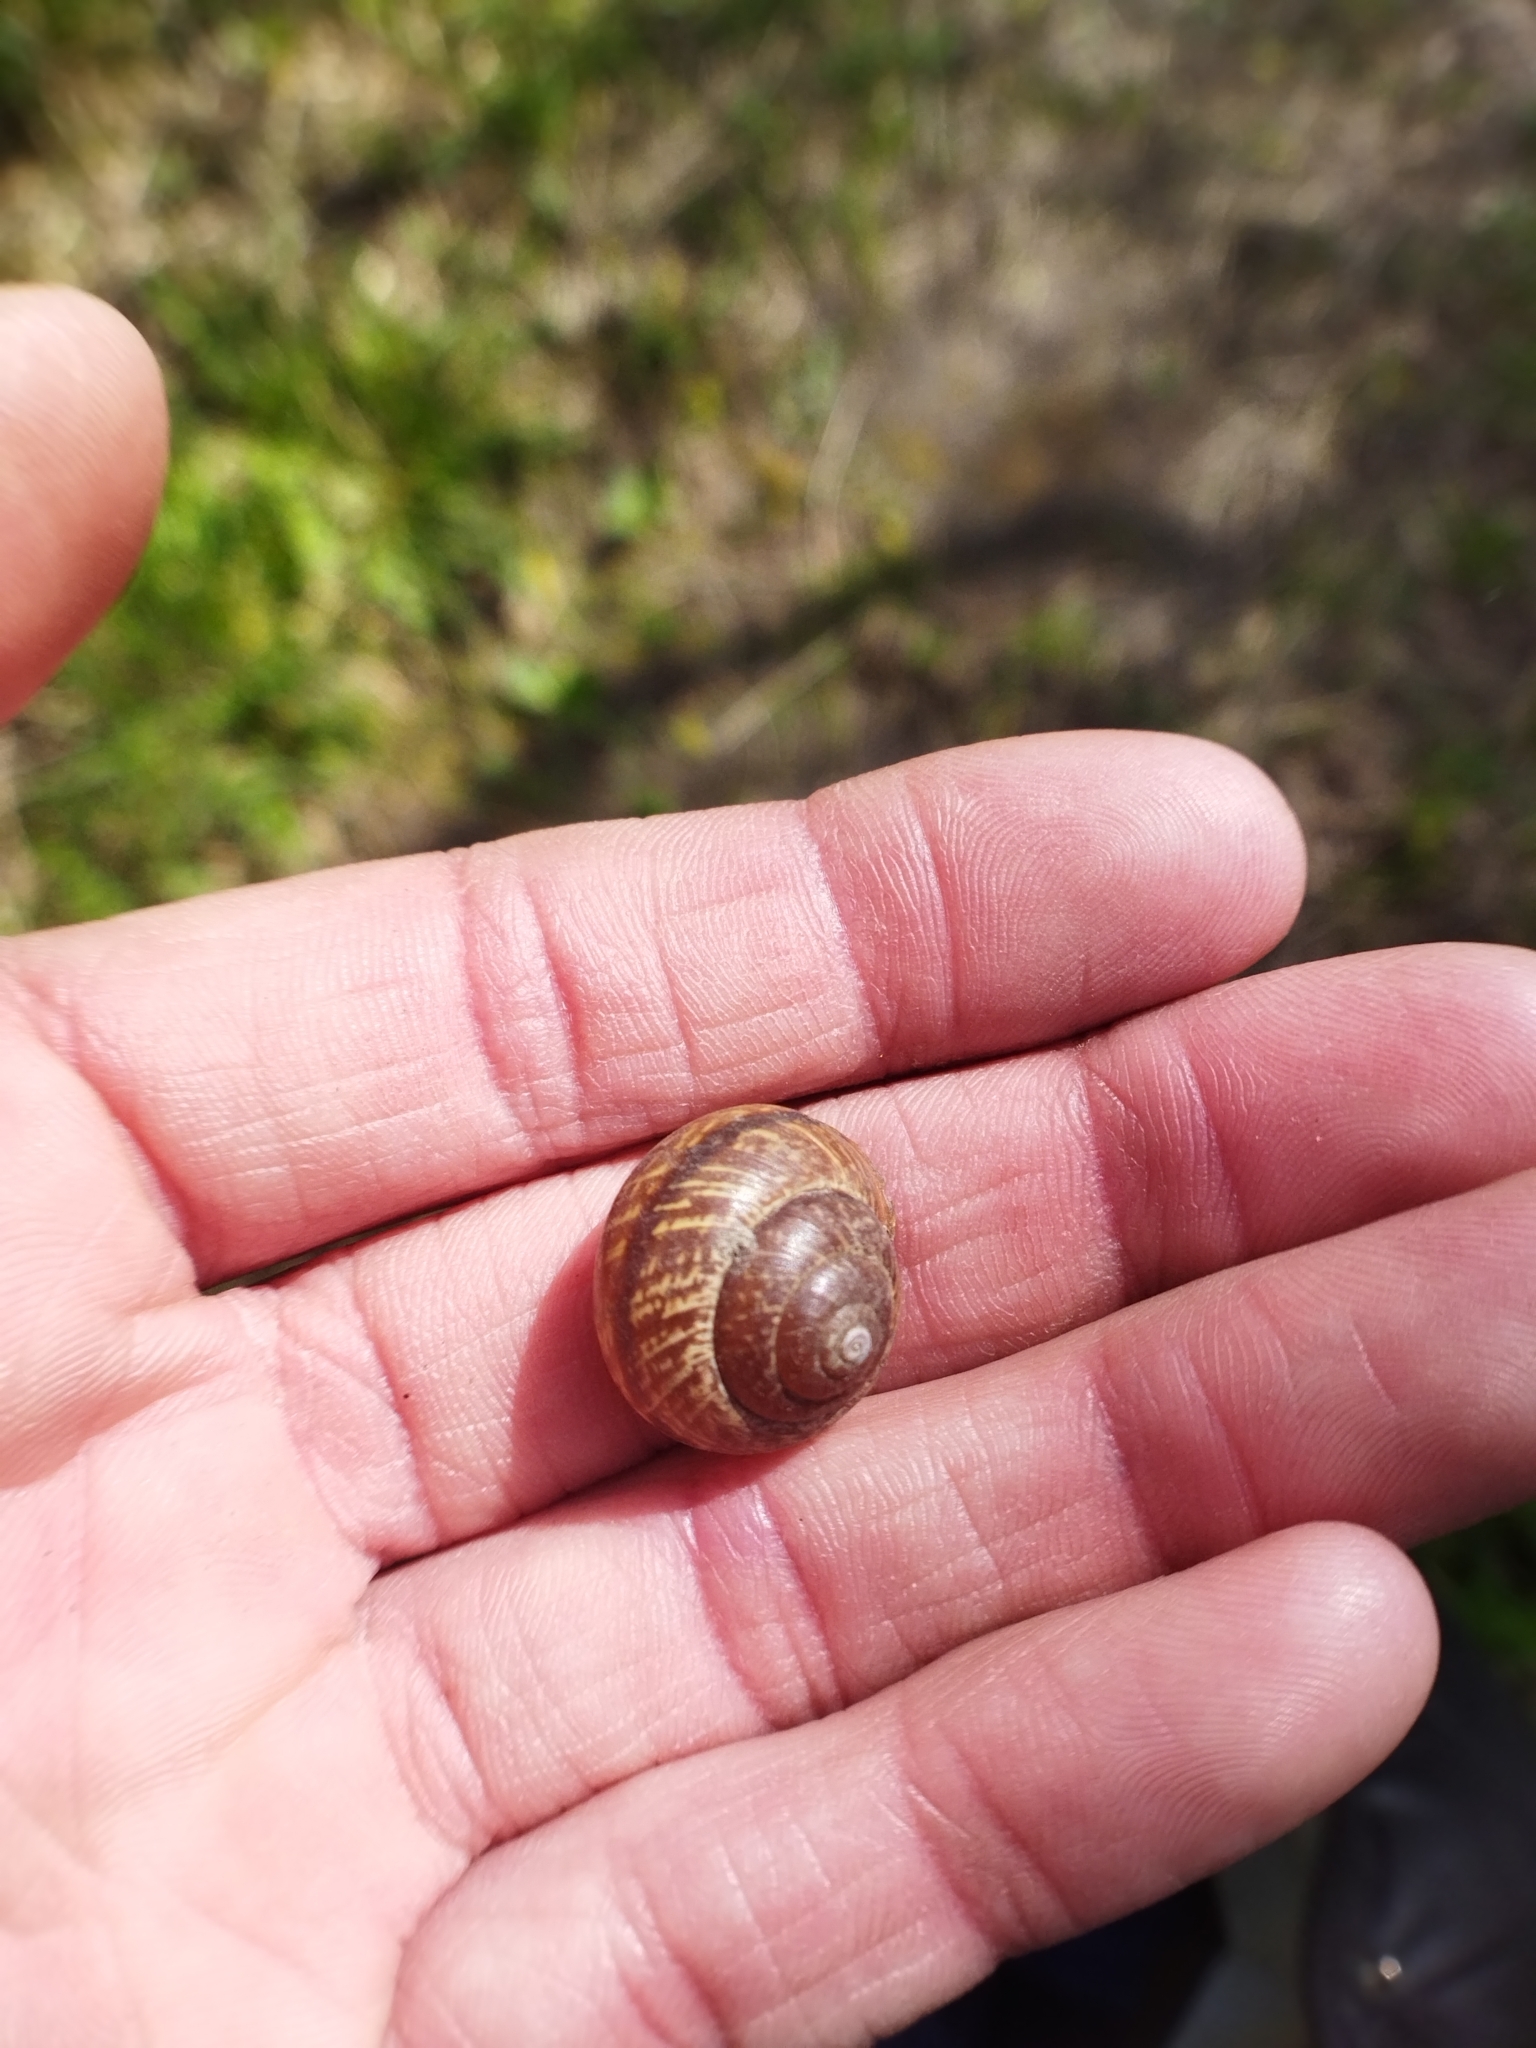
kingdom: Animalia
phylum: Mollusca
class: Gastropoda
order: Stylommatophora
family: Helicidae
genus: Arianta
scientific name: Arianta arbustorum
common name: Copse snail
